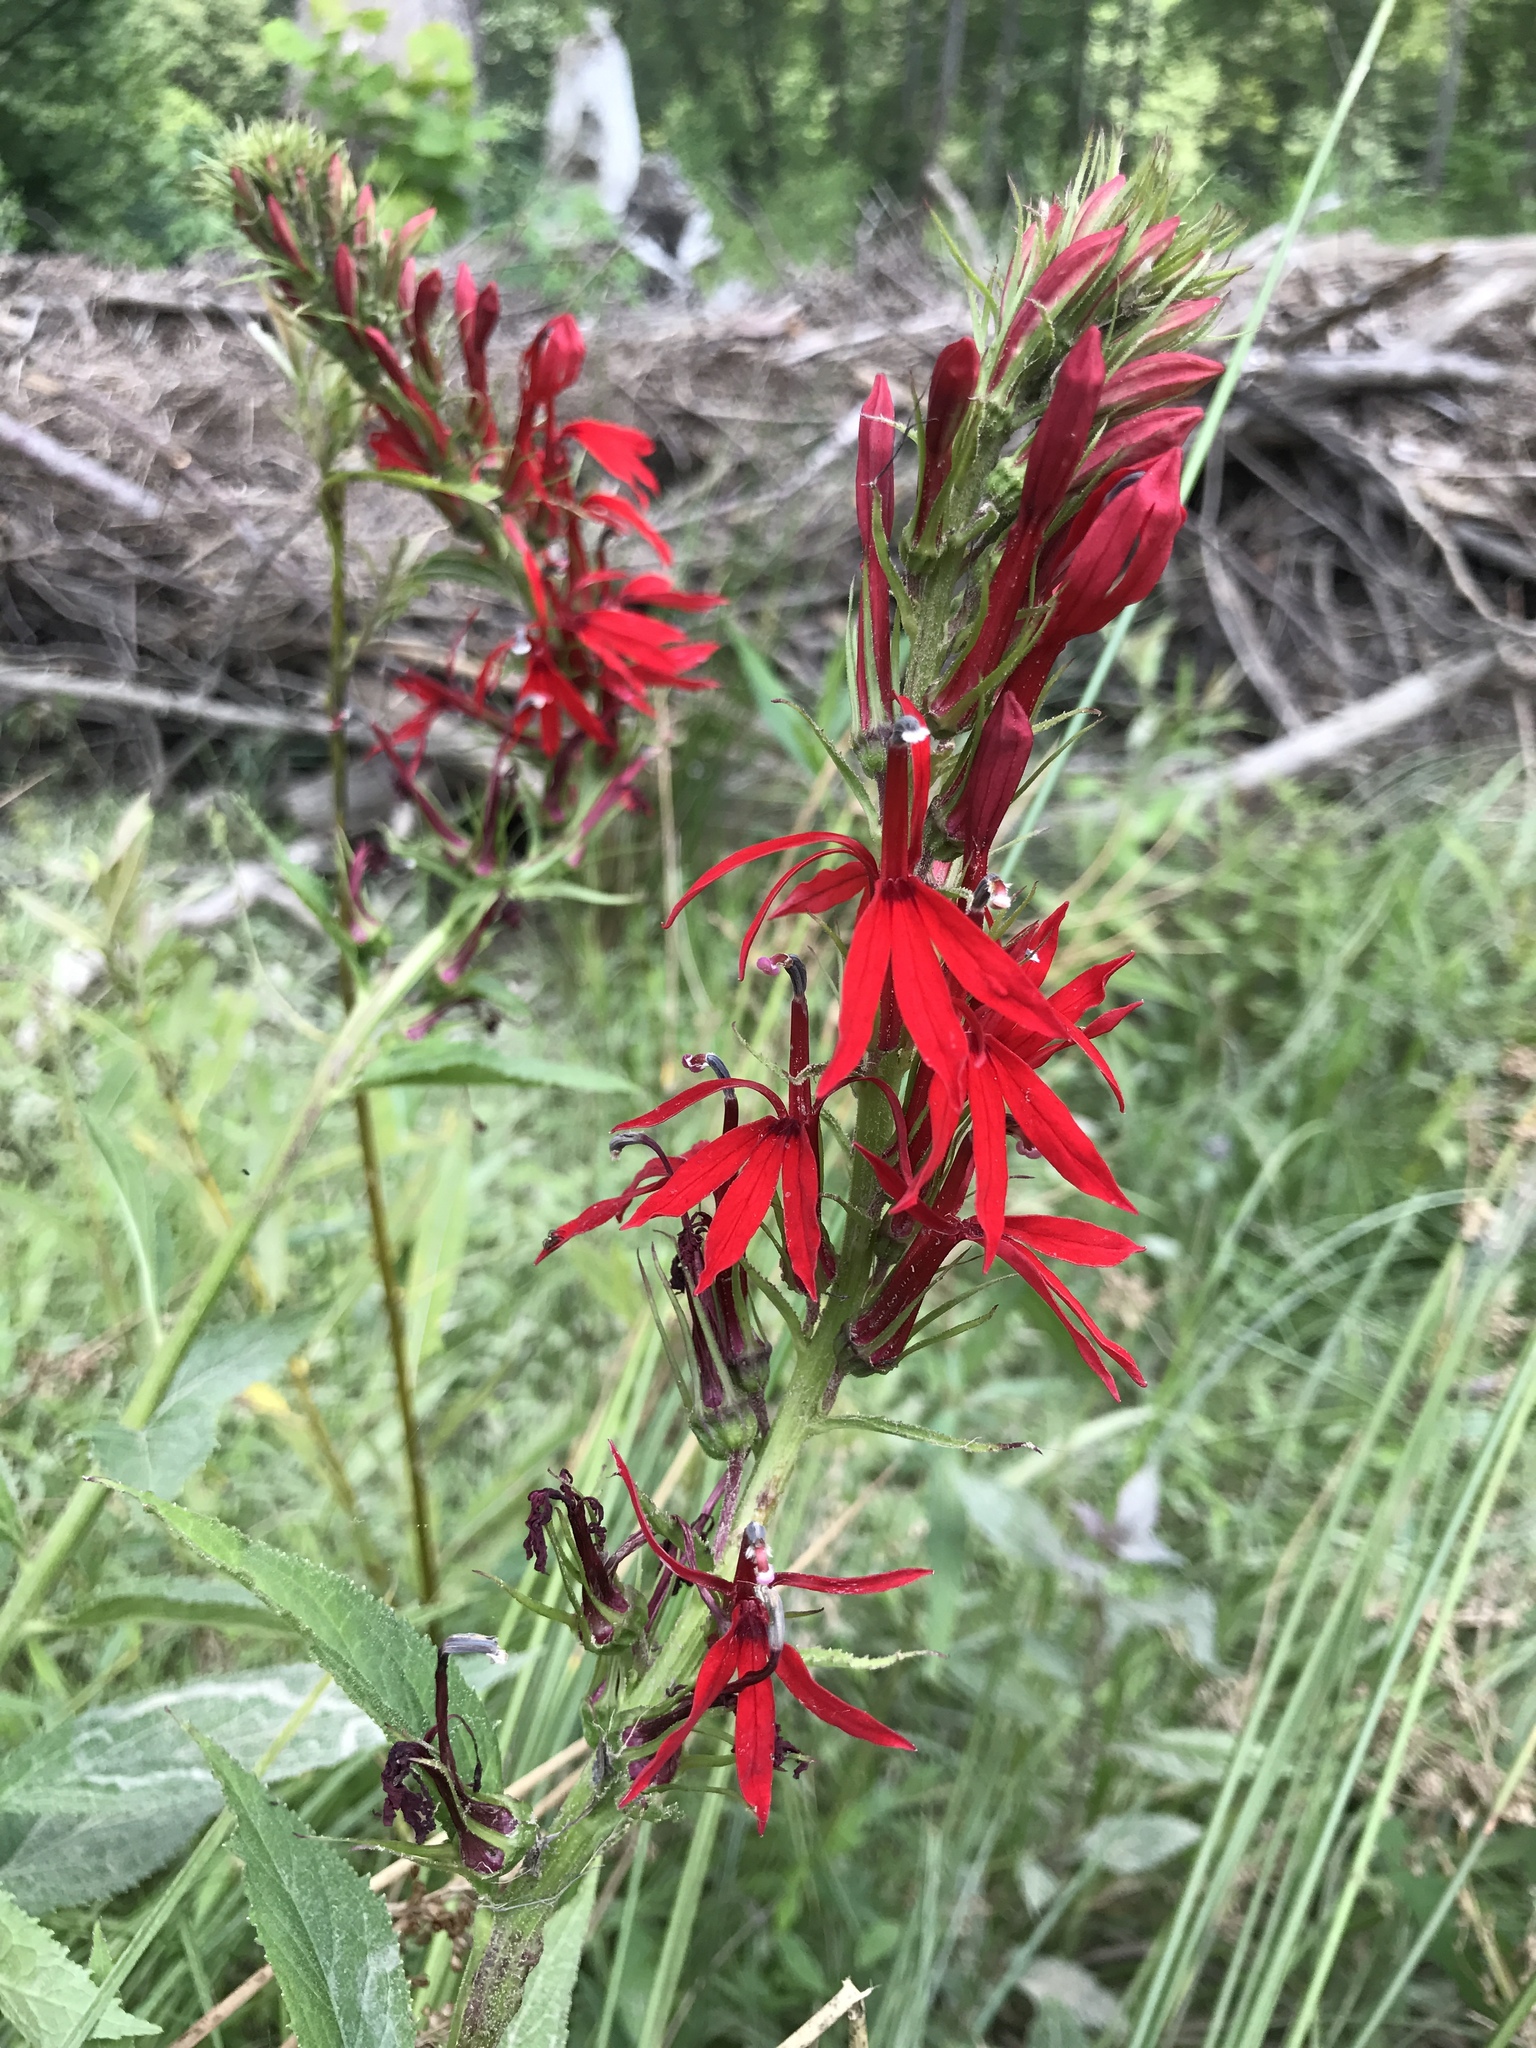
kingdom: Plantae
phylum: Tracheophyta
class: Magnoliopsida
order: Asterales
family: Campanulaceae
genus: Lobelia
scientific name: Lobelia cardinalis
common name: Cardinal flower
